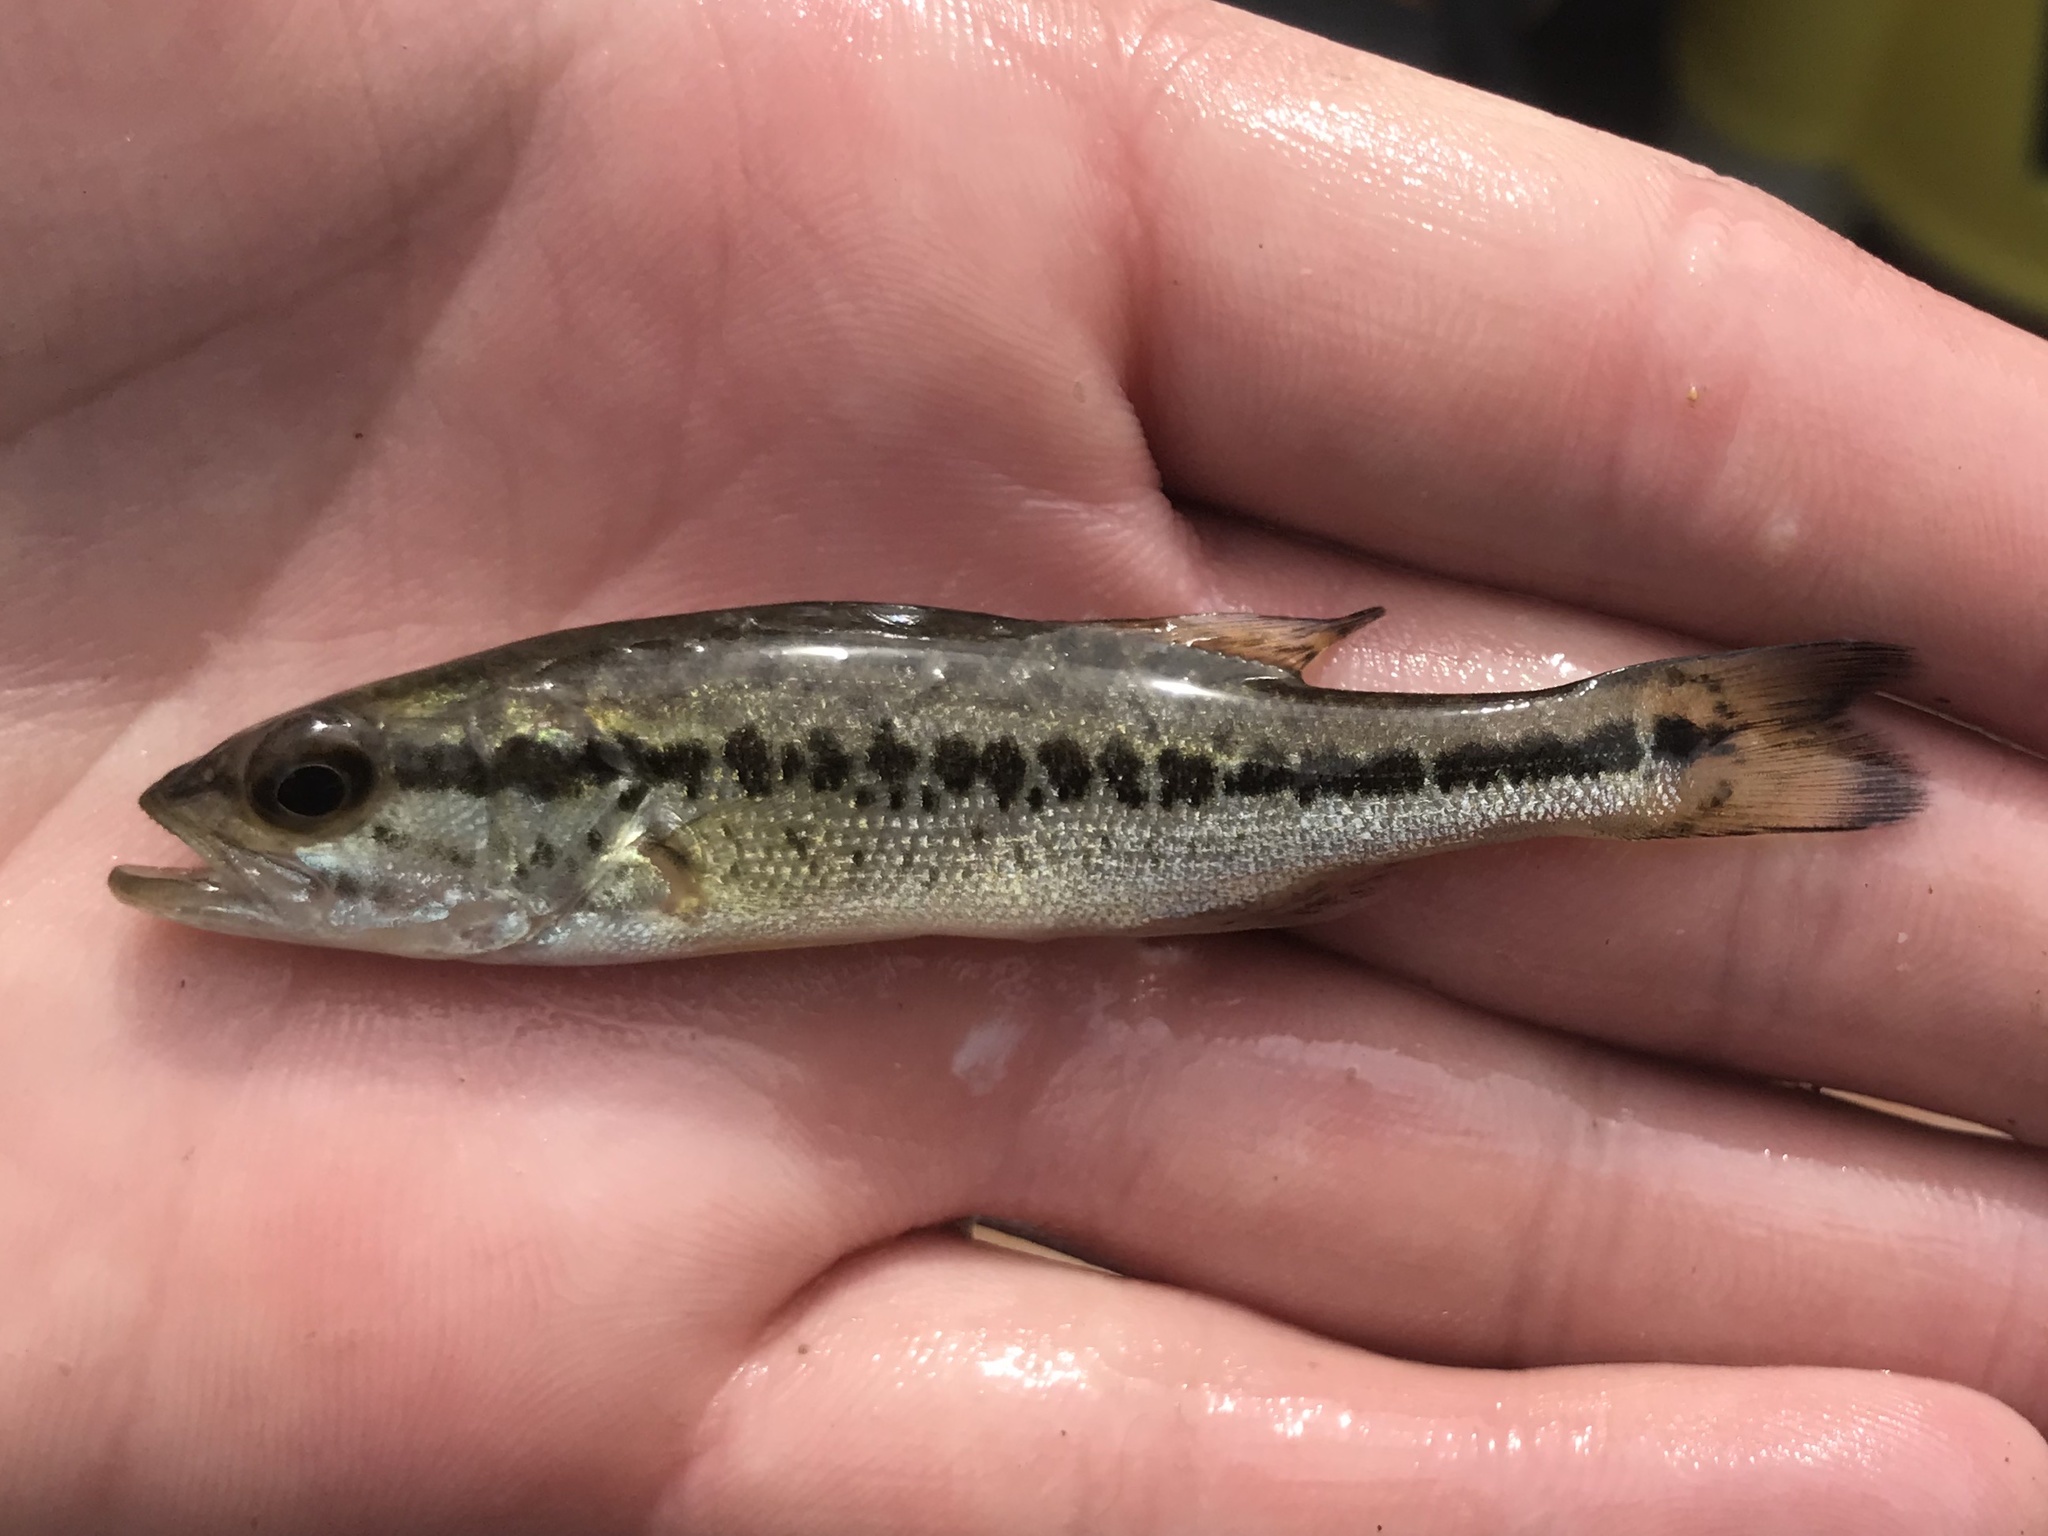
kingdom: Animalia
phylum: Chordata
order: Perciformes
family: Centrarchidae
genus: Micropterus
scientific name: Micropterus
